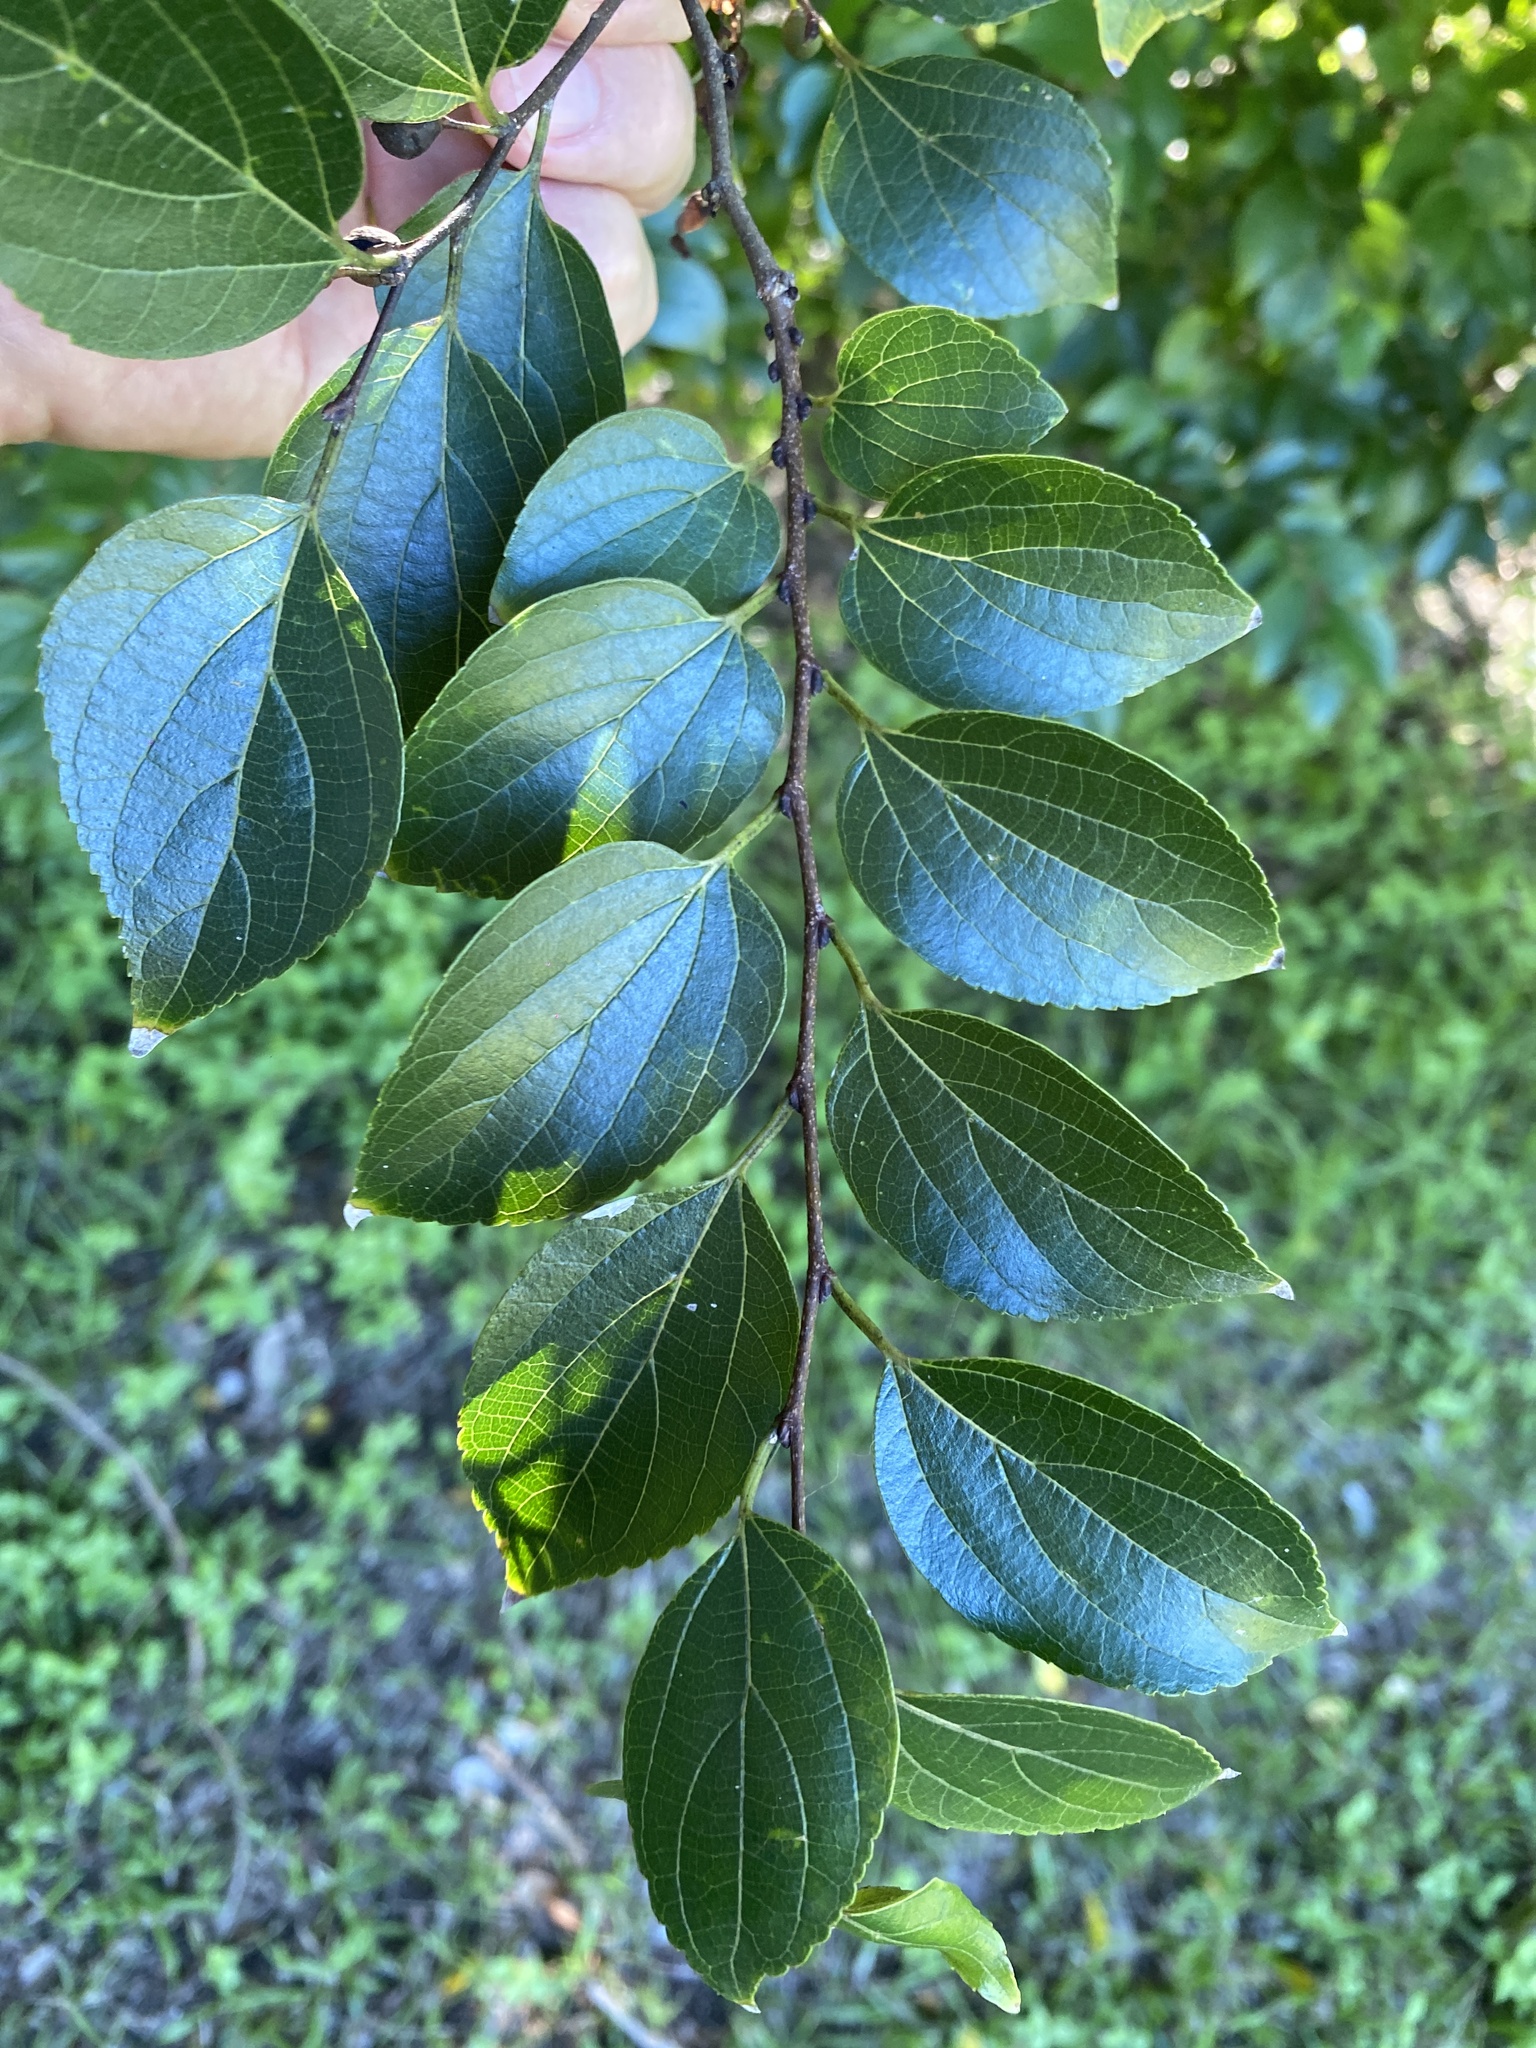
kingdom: Plantae
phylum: Tracheophyta
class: Magnoliopsida
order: Rosales
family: Cannabaceae
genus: Celtis
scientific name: Celtis sinensis
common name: Chinese hackberry
